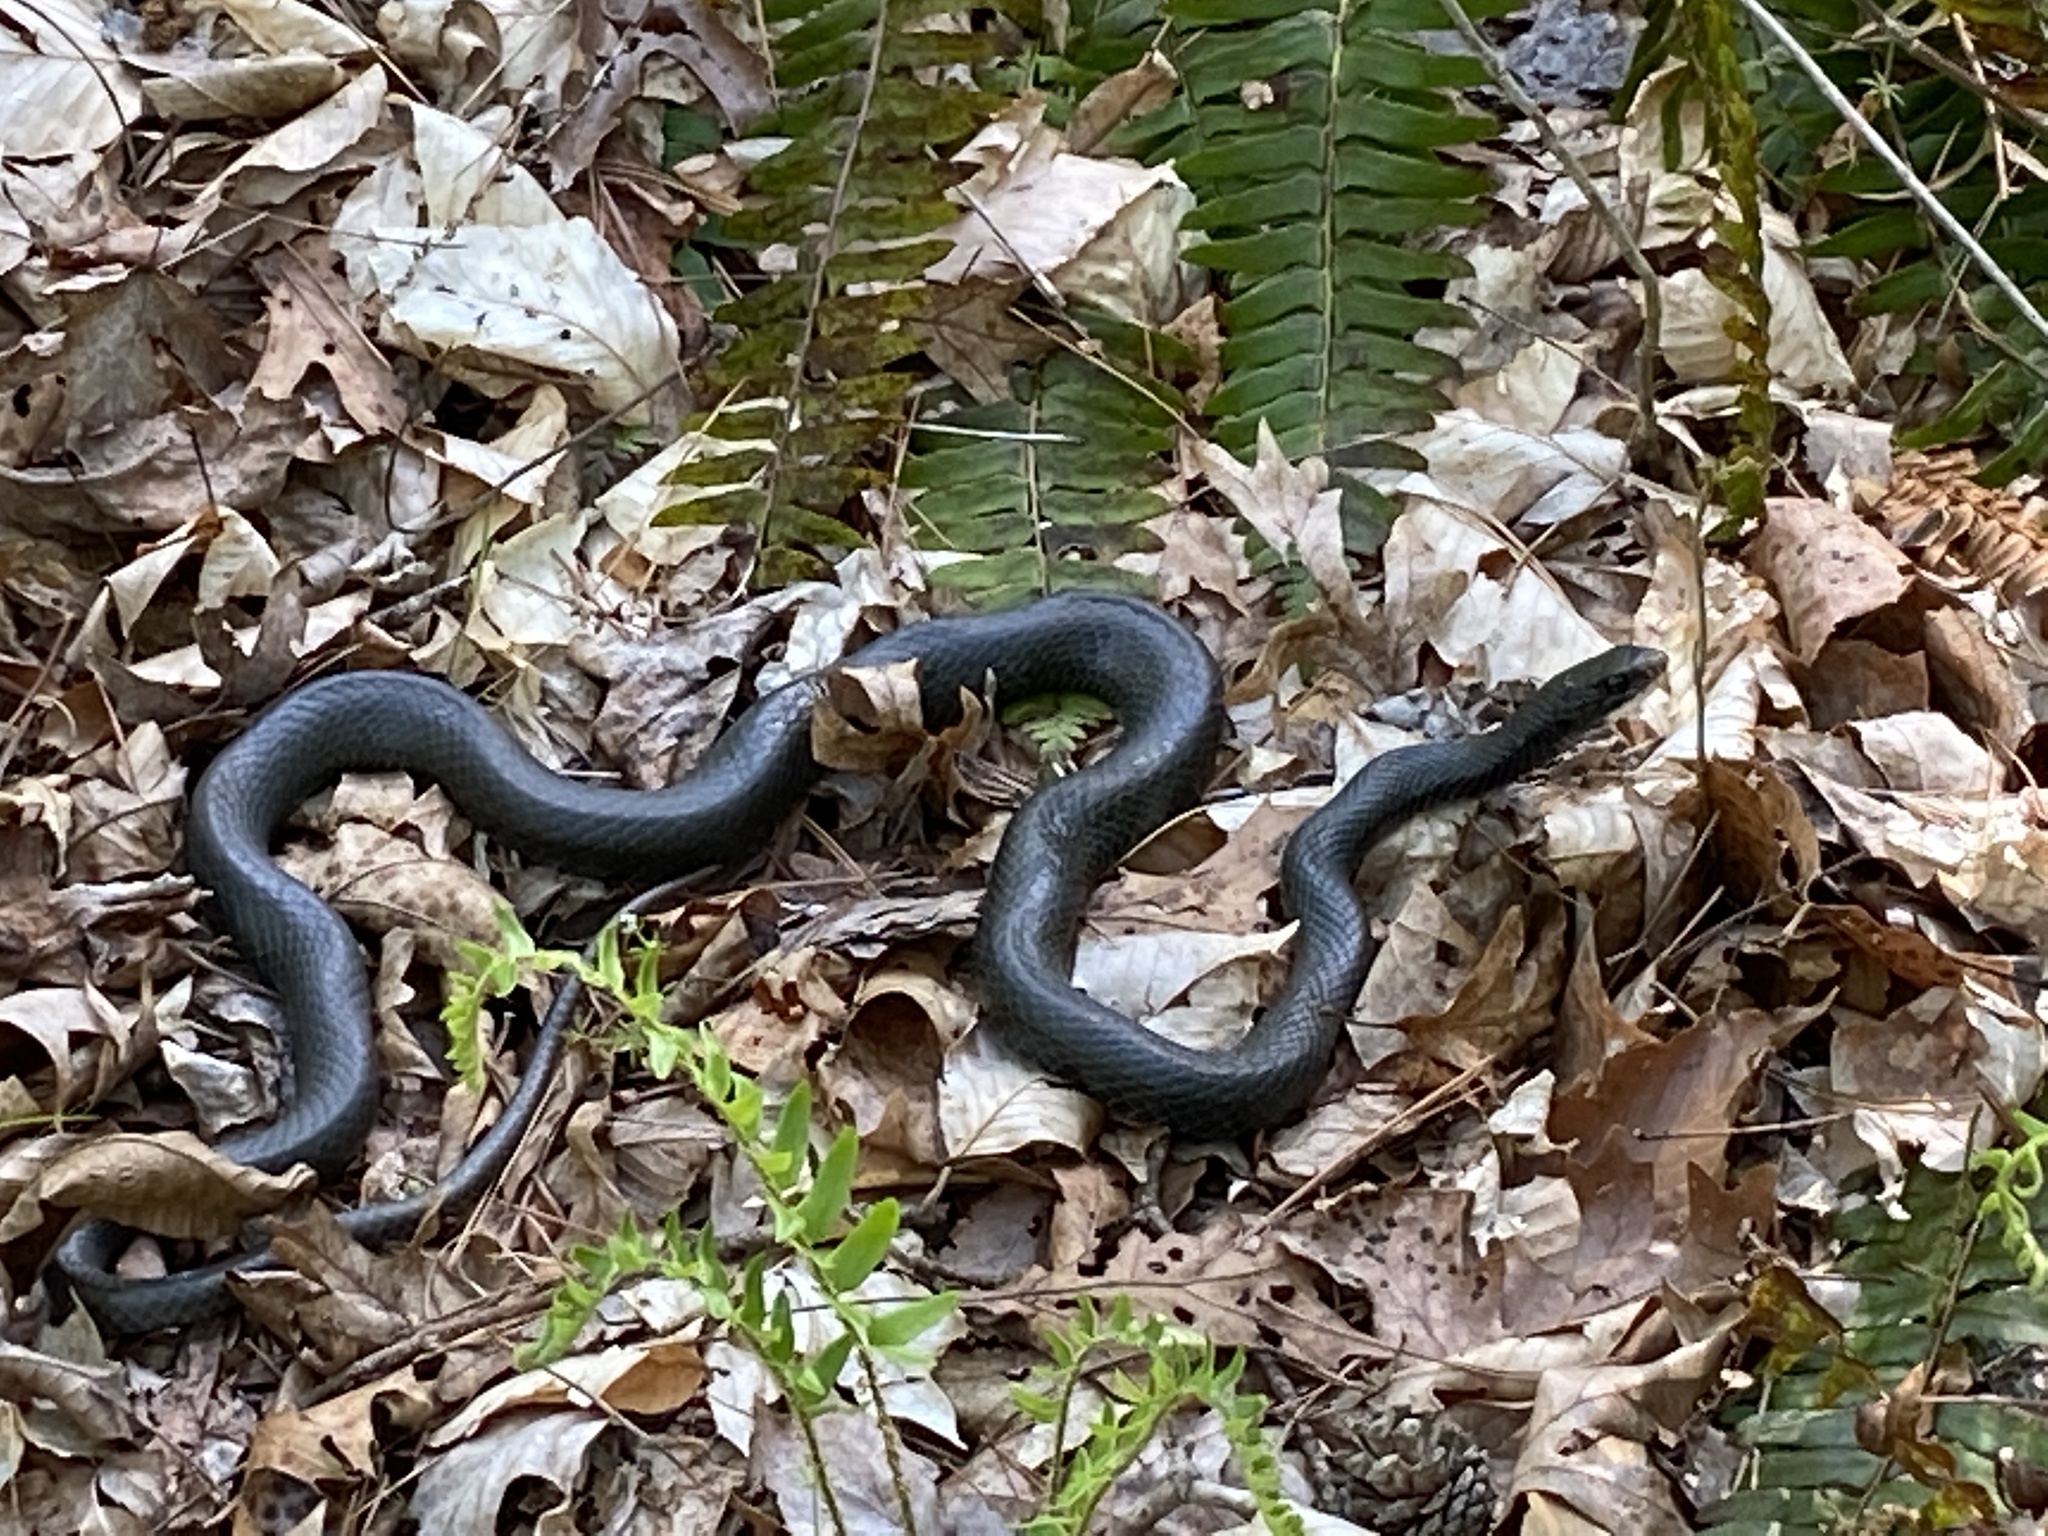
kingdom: Animalia
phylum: Chordata
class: Squamata
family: Colubridae
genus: Coluber
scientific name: Coluber constrictor
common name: Eastern racer
